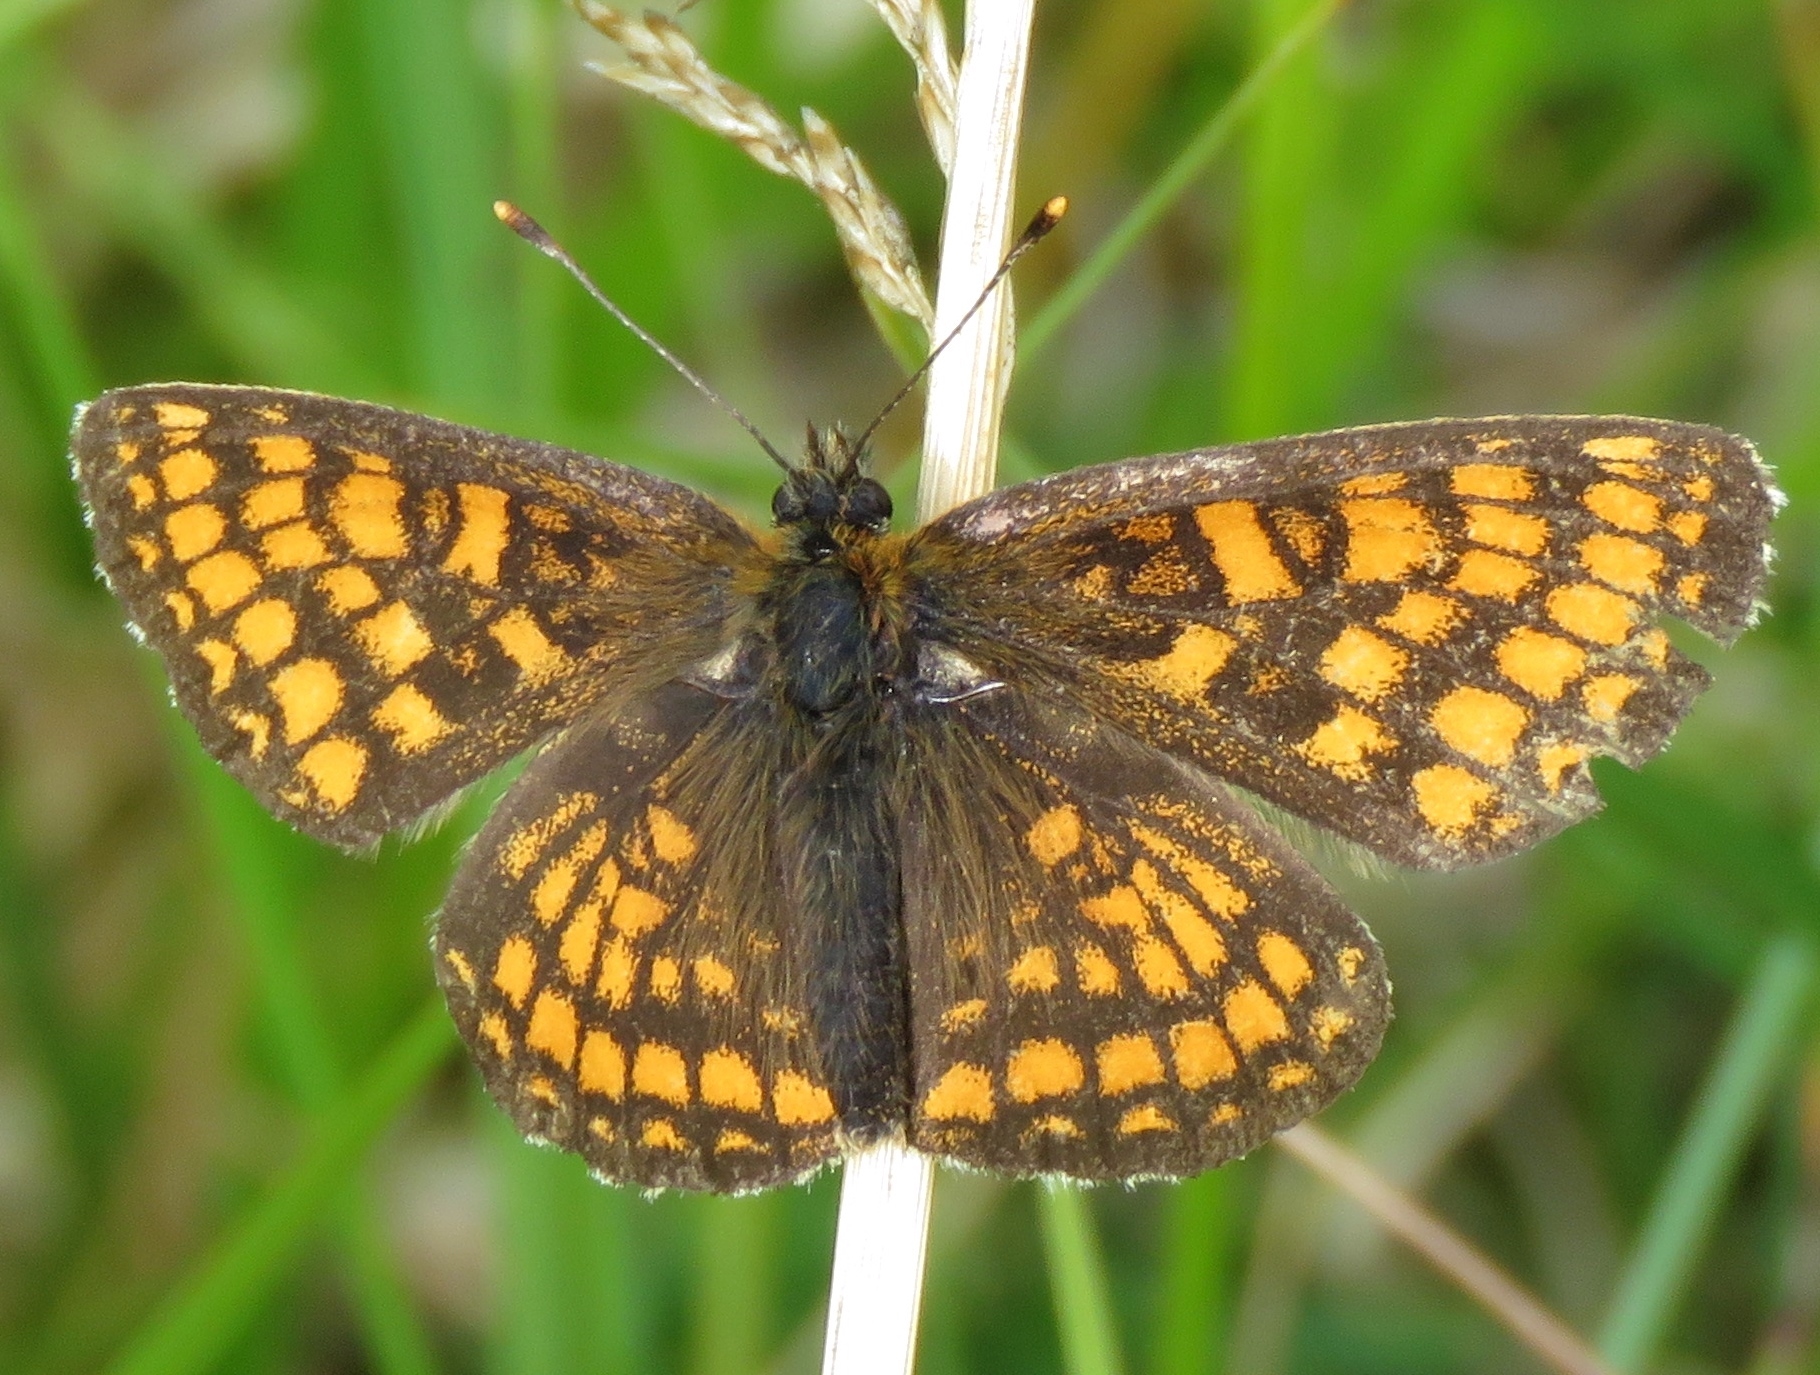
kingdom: Animalia
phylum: Arthropoda
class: Insecta
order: Lepidoptera
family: Nymphalidae
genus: Melitaea
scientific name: Melitaea athalia
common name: Heath fritillary
